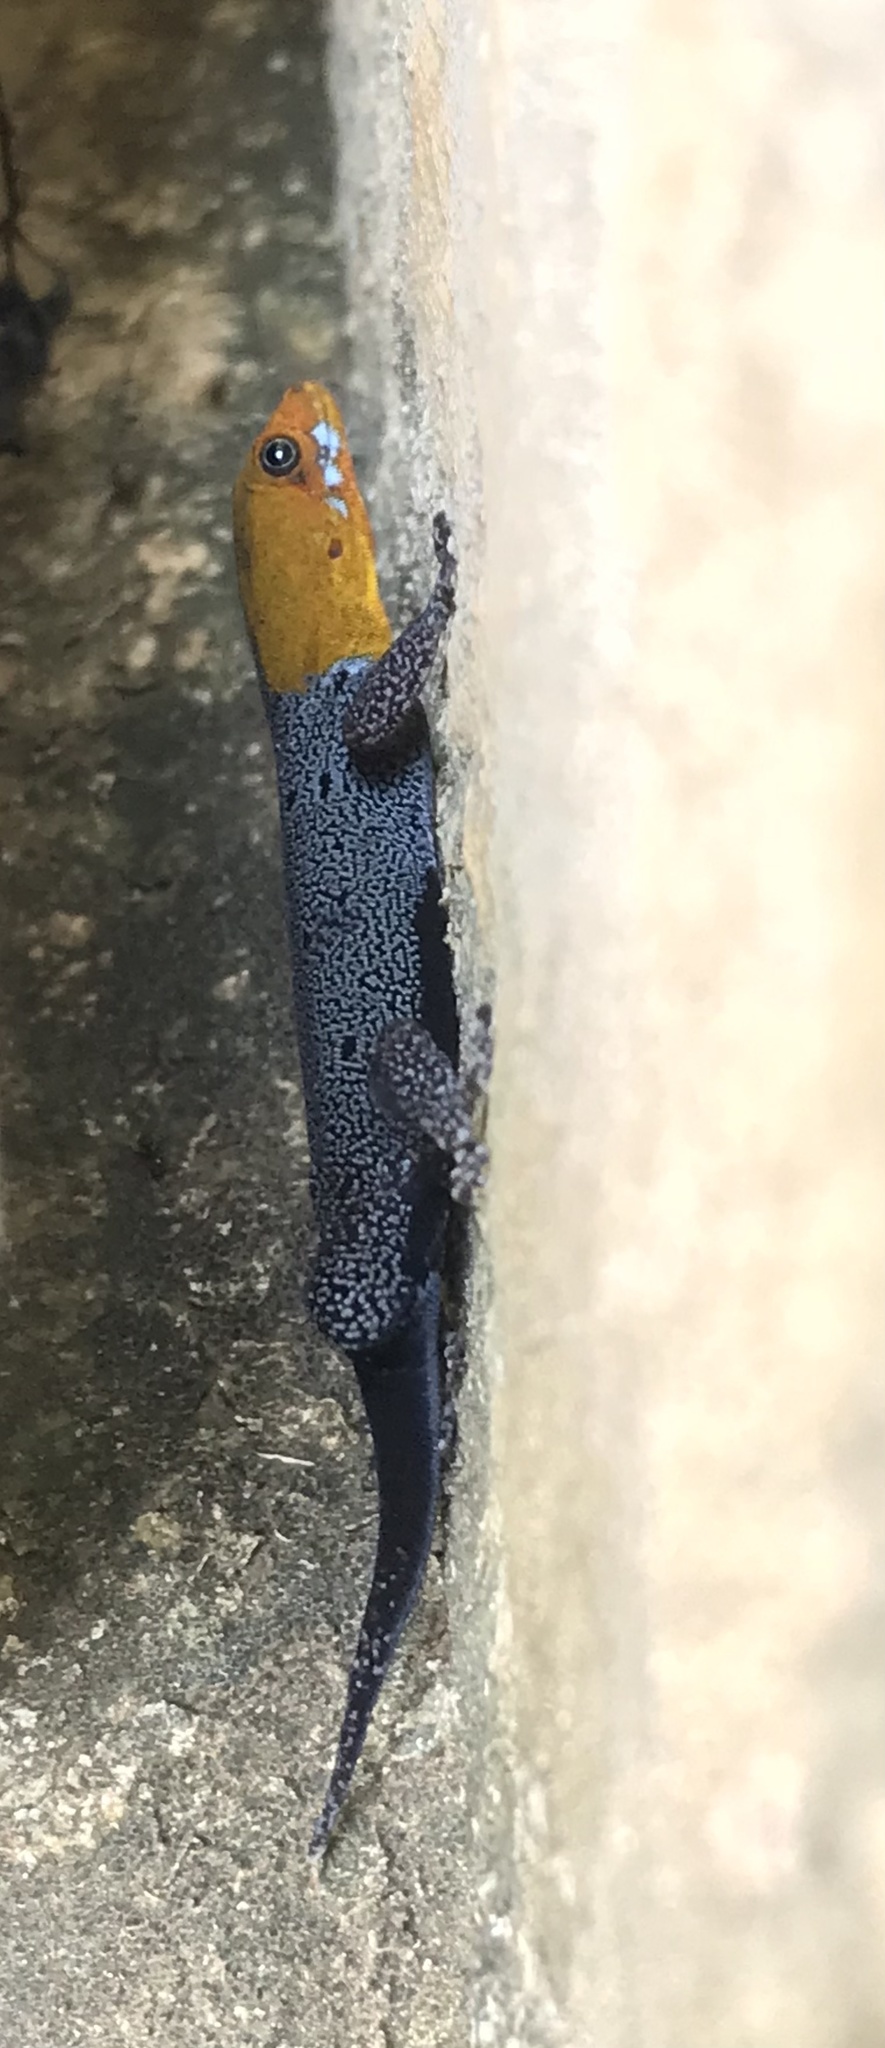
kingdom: Animalia
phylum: Chordata
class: Squamata
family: Sphaerodactylidae
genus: Gonatodes
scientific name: Gonatodes albogularis
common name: Yellow-headed gecko
